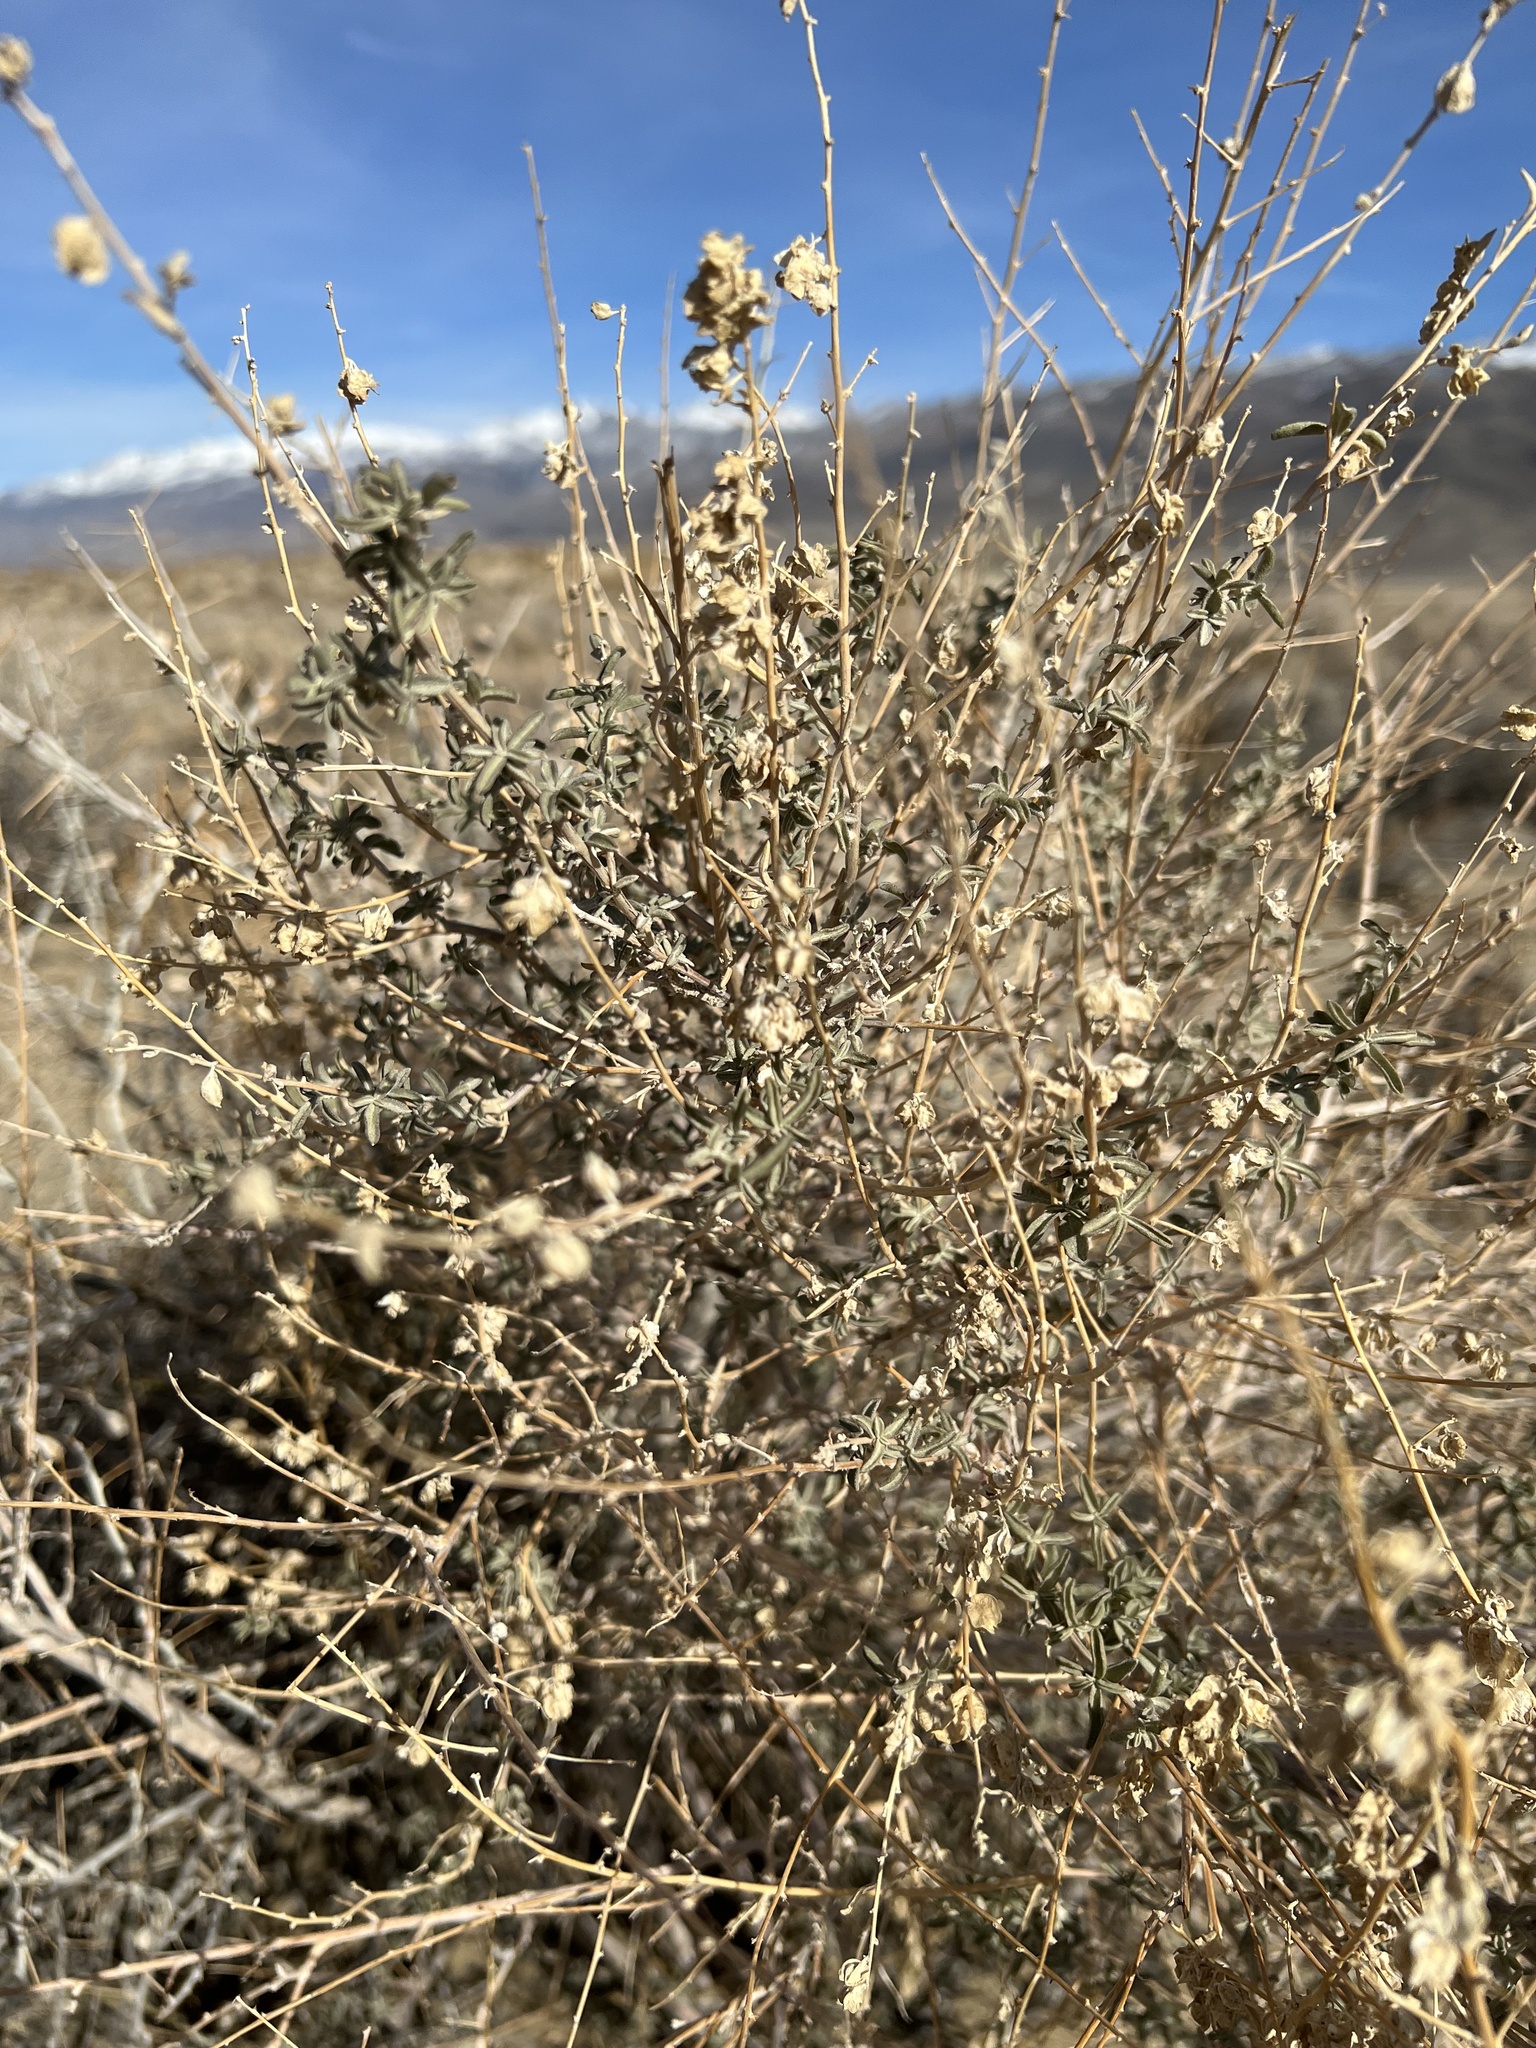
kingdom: Plantae
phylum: Tracheophyta
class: Magnoliopsida
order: Caryophyllales
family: Amaranthaceae
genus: Atriplex
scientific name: Atriplex canescens
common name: Four-wing saltbush
